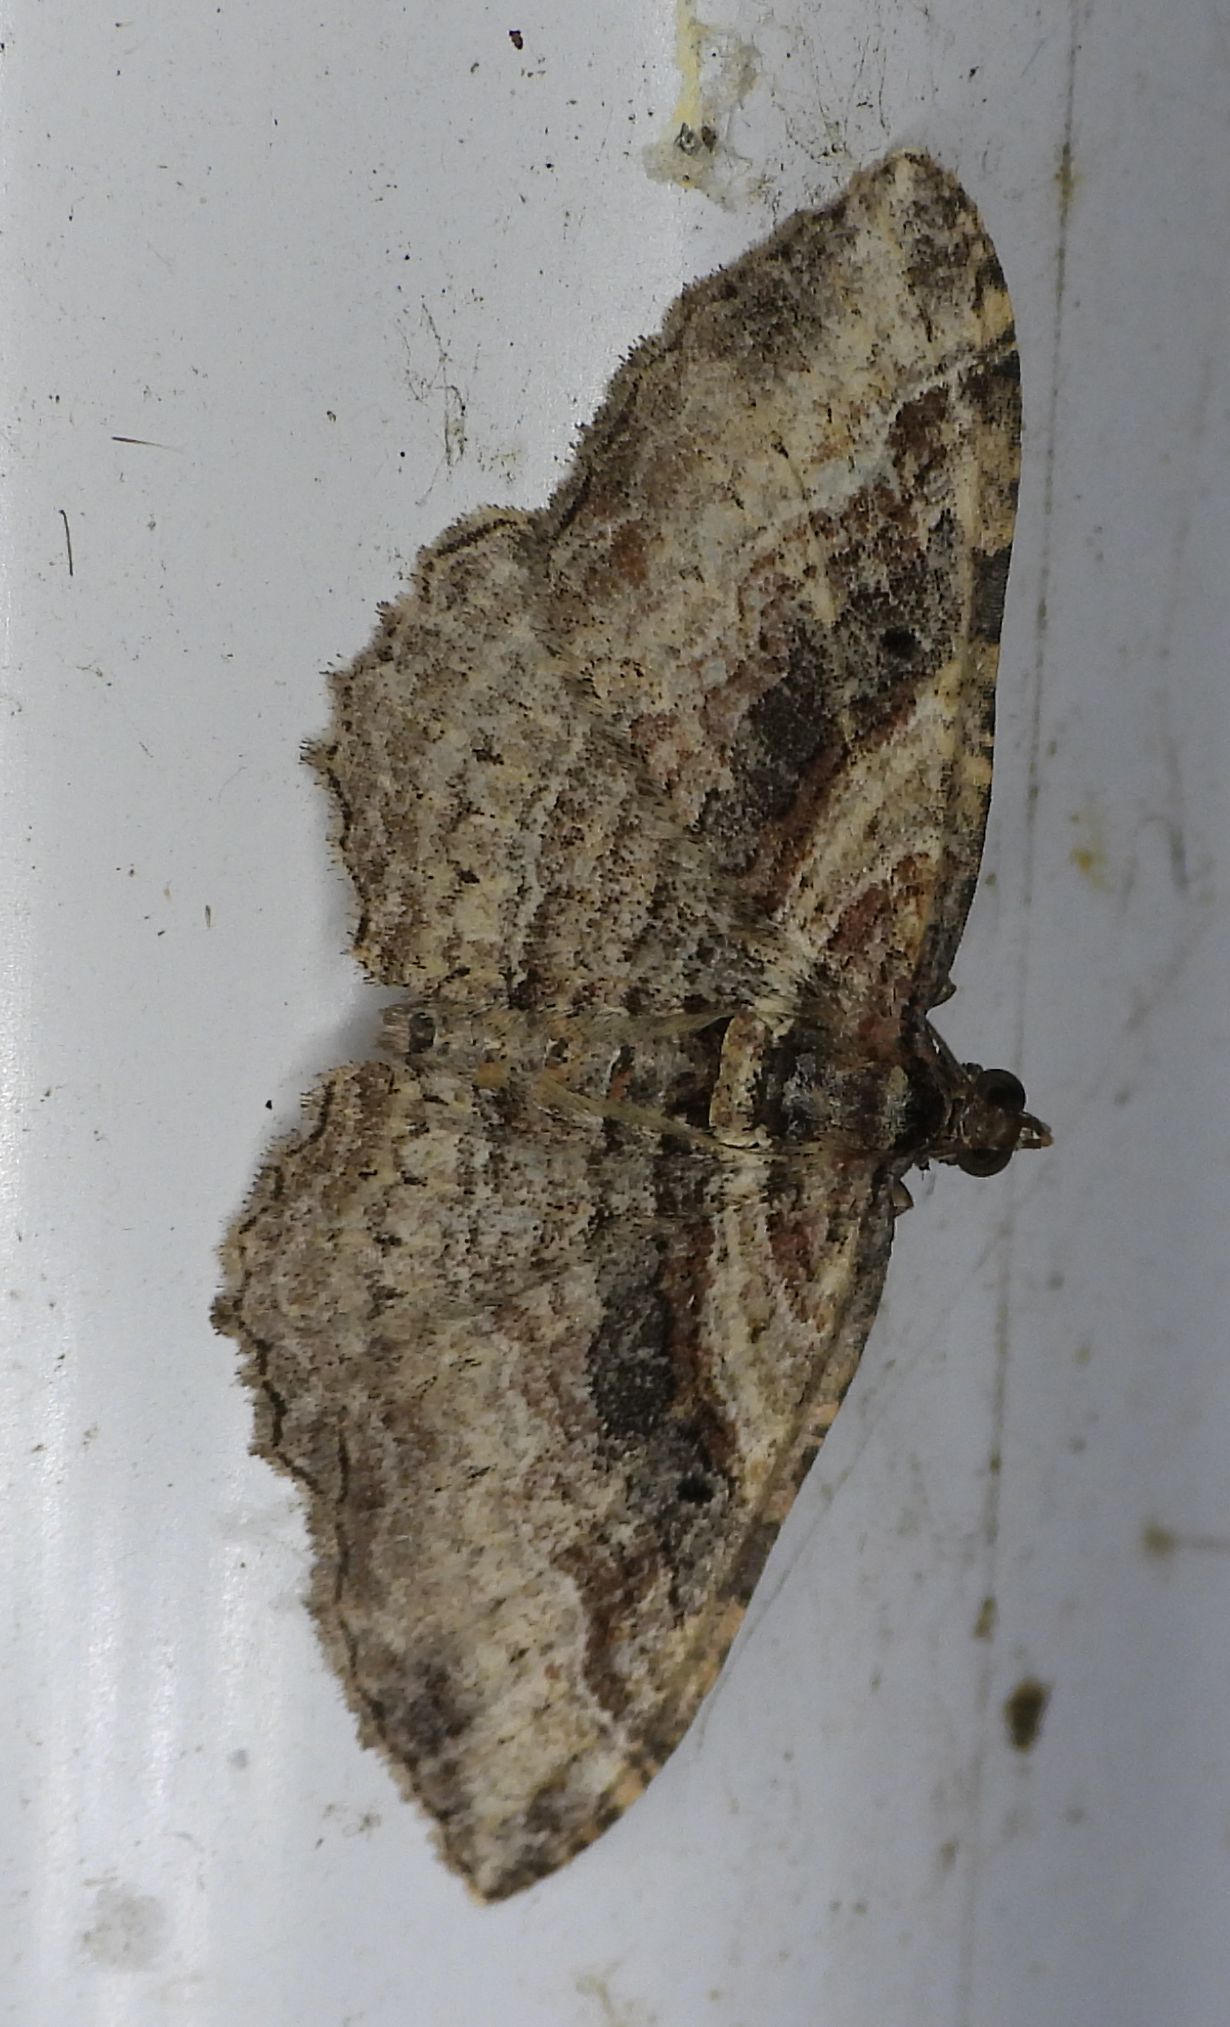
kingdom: Animalia
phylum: Arthropoda
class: Insecta
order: Lepidoptera
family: Geometridae
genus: Costaconvexa
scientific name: Costaconvexa centrostrigaria
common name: Bent-line carpet
